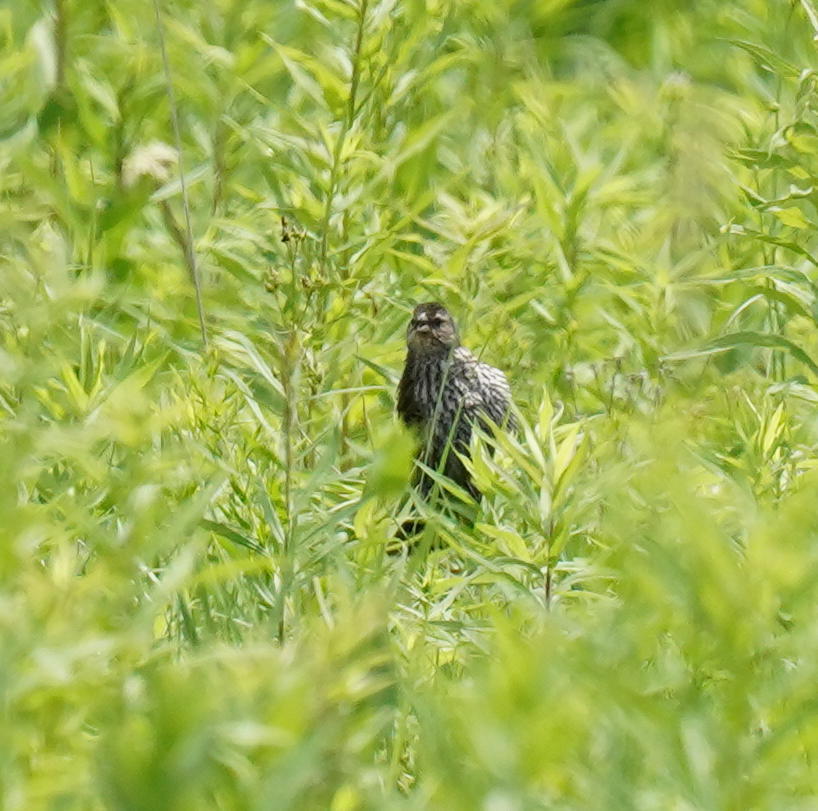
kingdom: Animalia
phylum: Chordata
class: Aves
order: Passeriformes
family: Icteridae
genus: Agelaius
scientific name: Agelaius phoeniceus
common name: Red-winged blackbird
